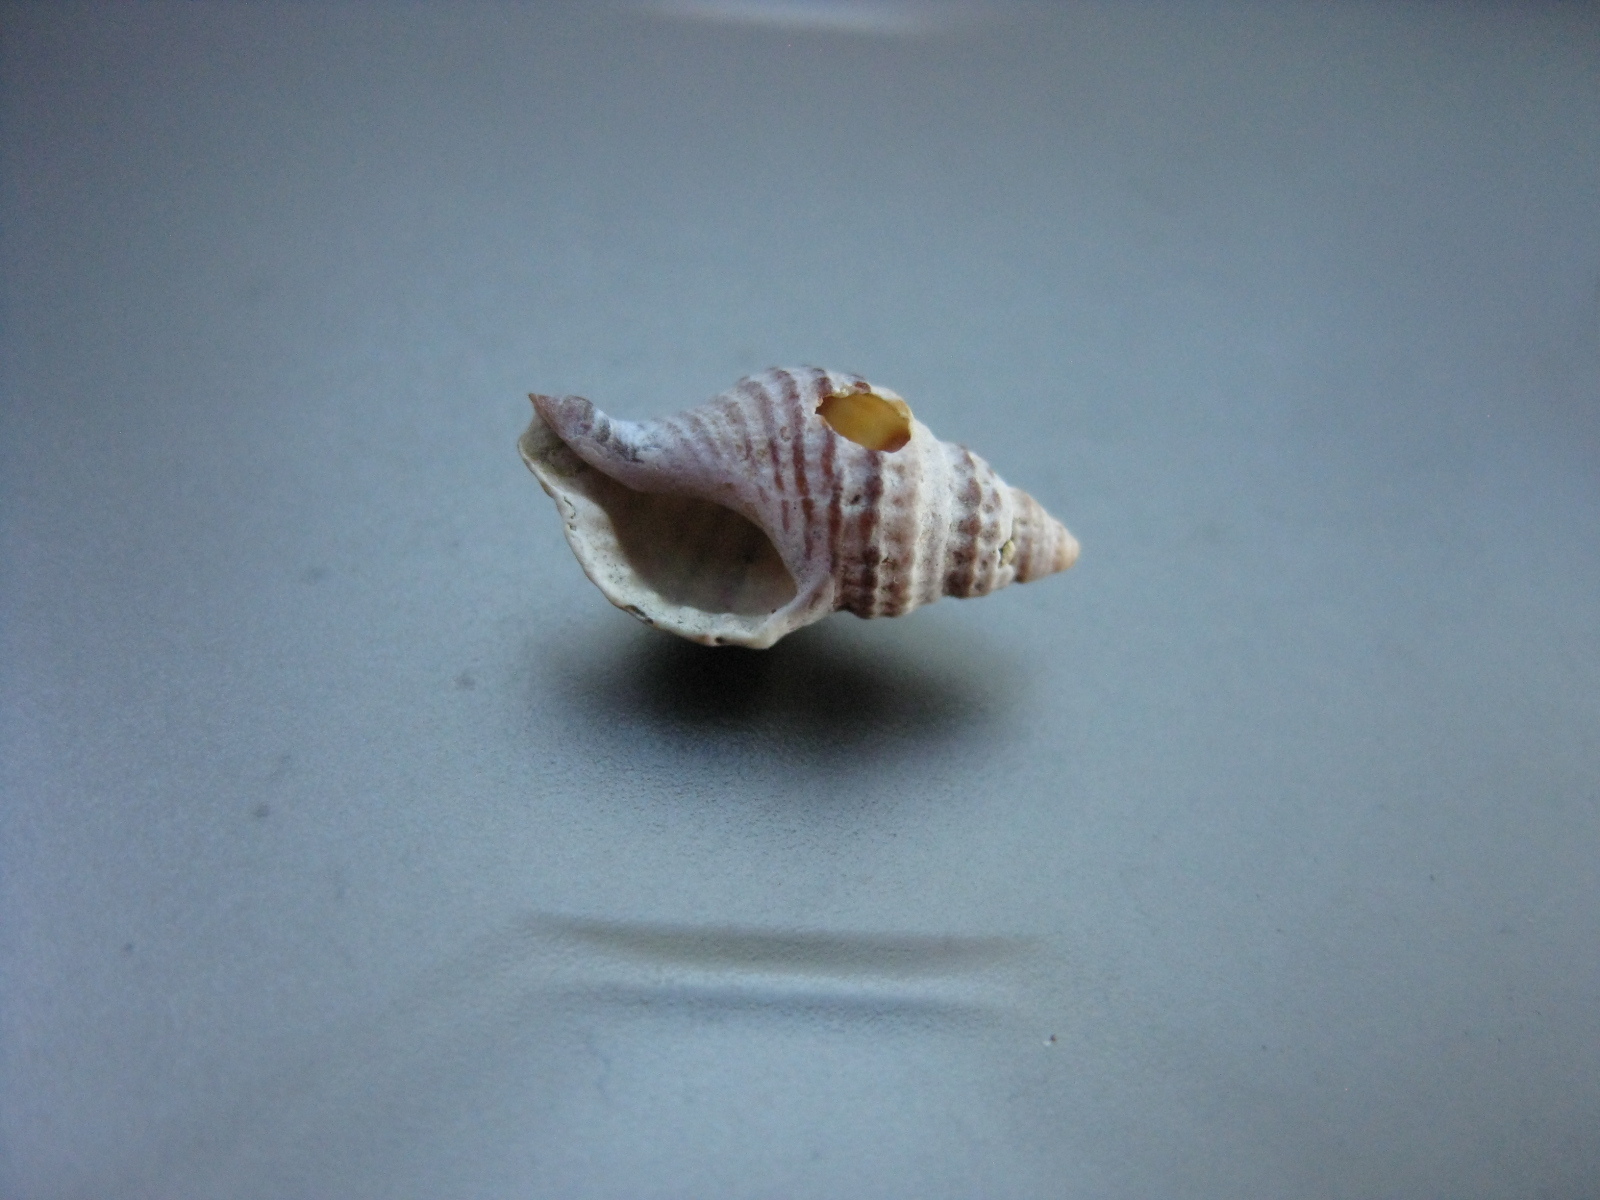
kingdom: Animalia
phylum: Mollusca
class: Gastropoda
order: Neogastropoda
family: Muricidae
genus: Xymene
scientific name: Xymene plebeius
